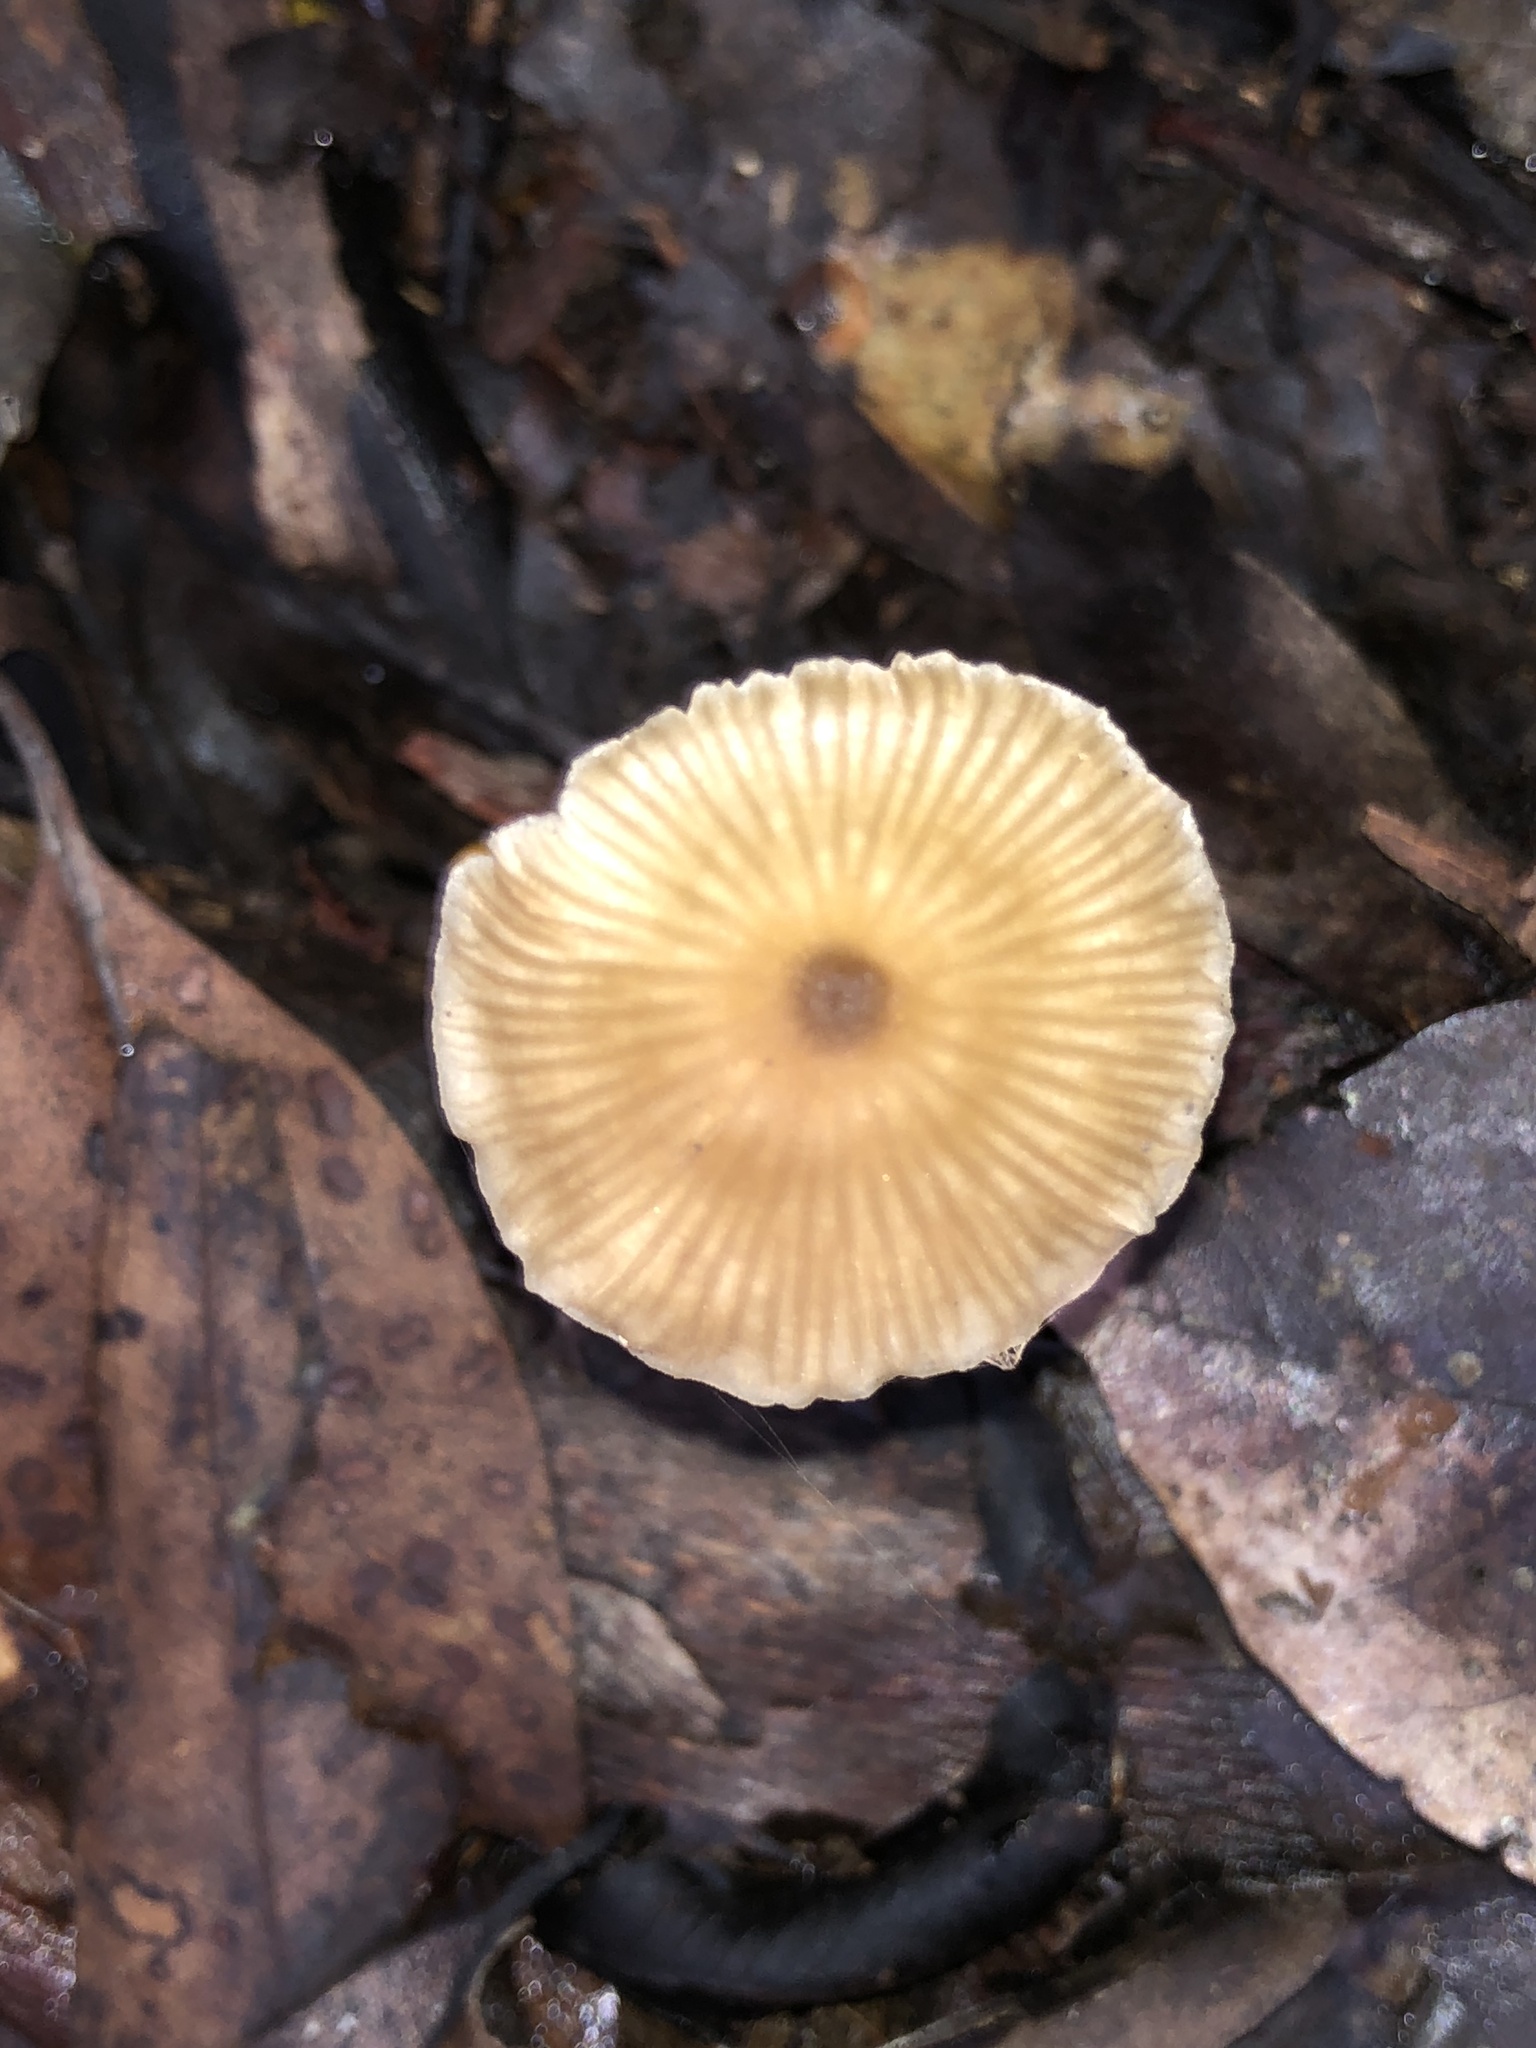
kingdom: Fungi
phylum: Basidiomycota
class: Agaricomycetes
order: Agaricales
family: Entolomataceae
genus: Entoloma
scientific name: Entoloma aromaticum
